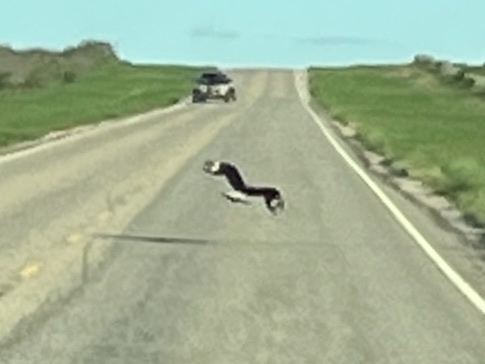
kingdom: Animalia
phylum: Chordata
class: Aves
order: Falconiformes
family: Falconidae
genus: Caracara
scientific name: Caracara plancus
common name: Southern caracara
